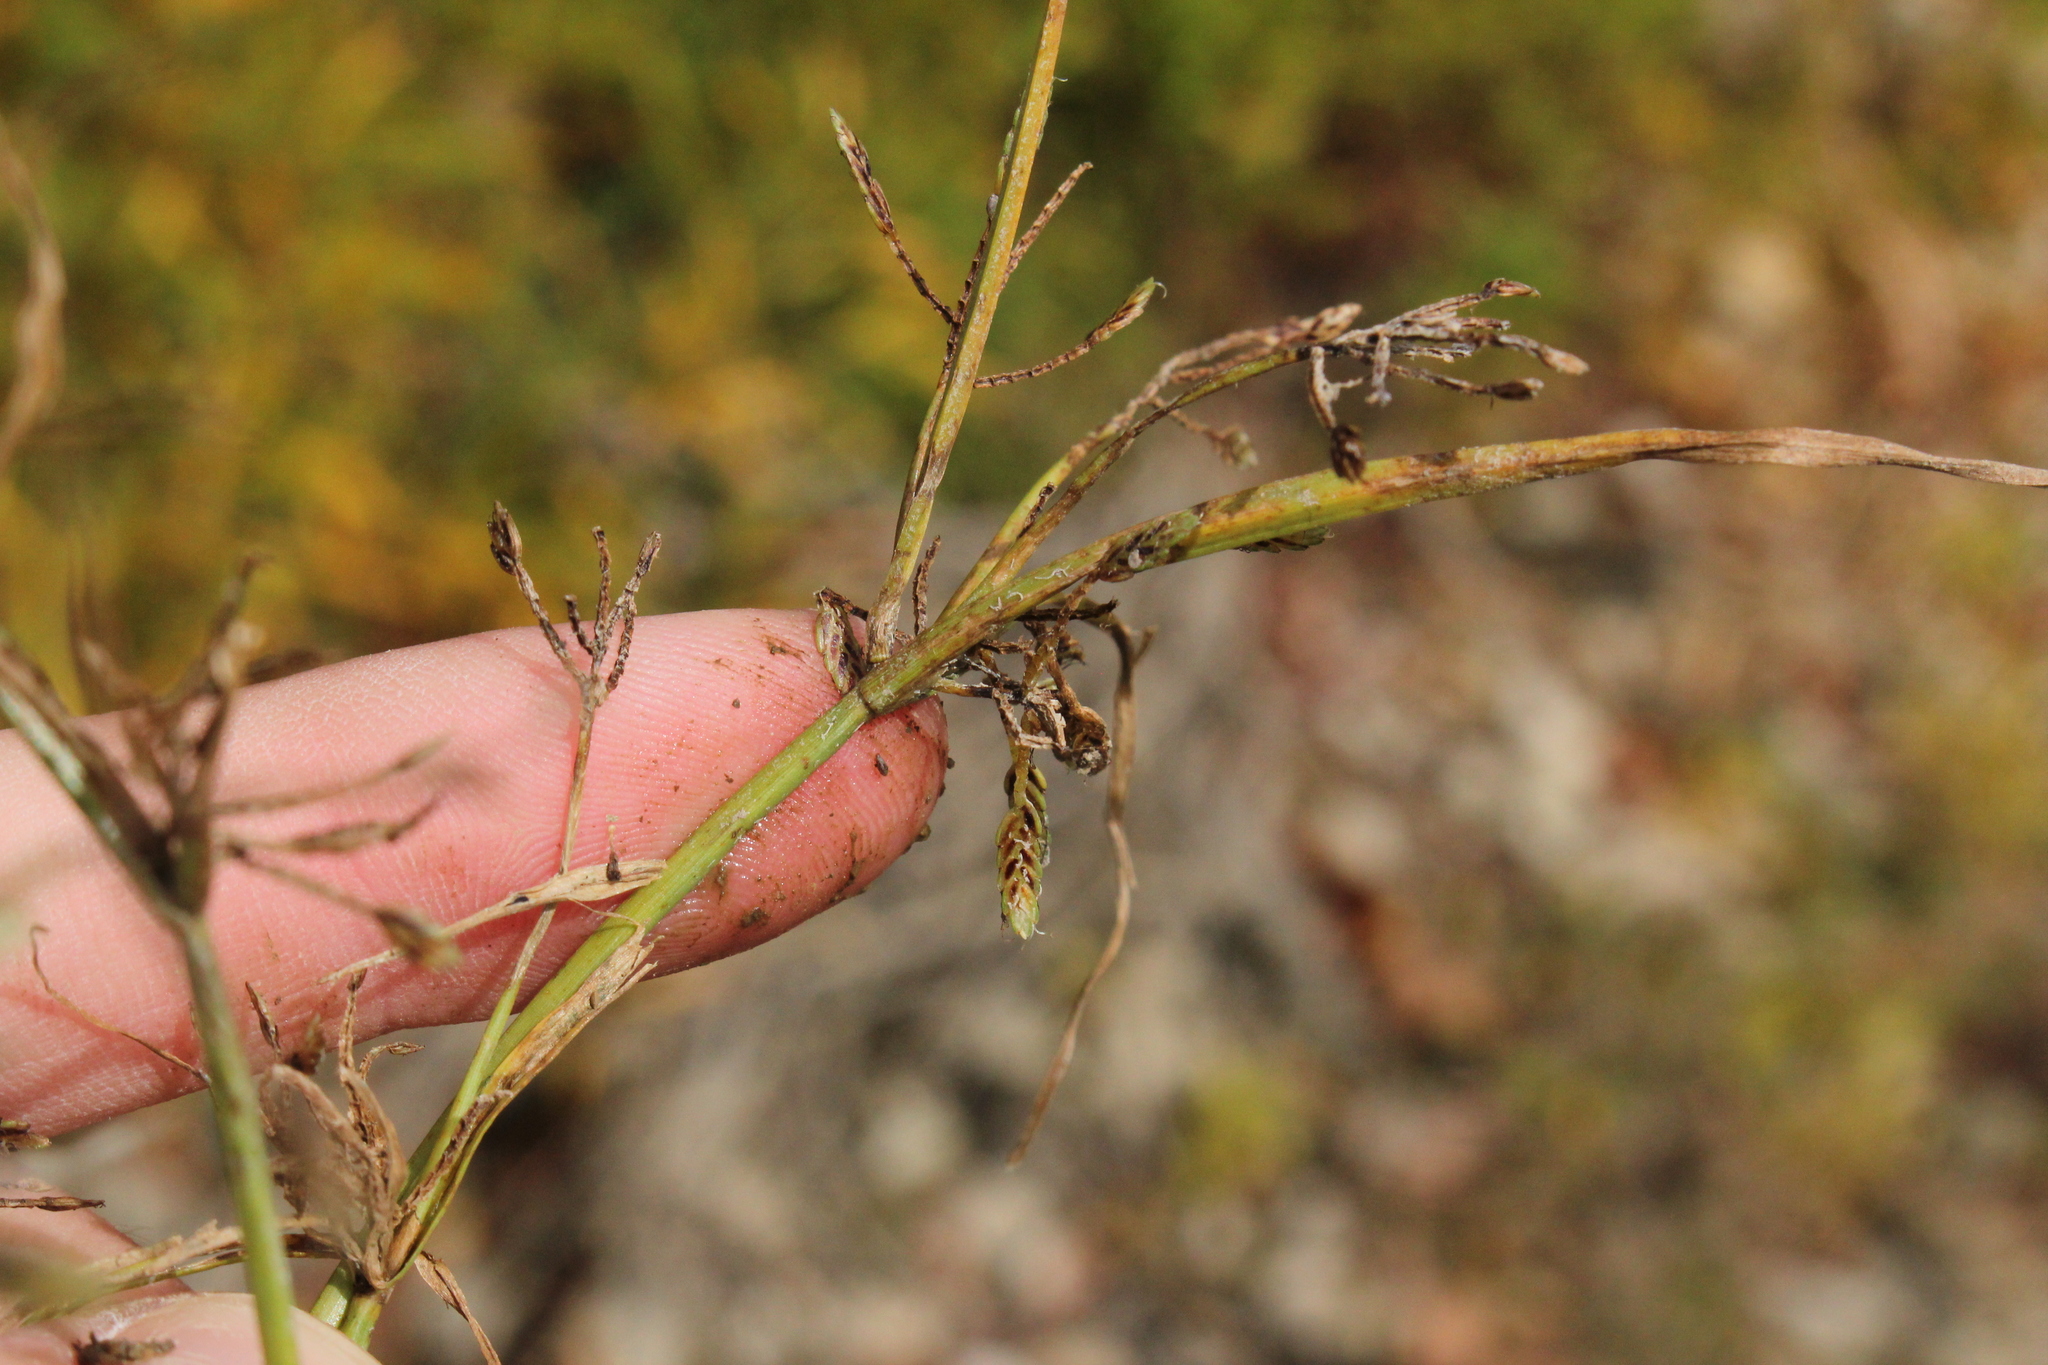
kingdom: Plantae
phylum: Tracheophyta
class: Liliopsida
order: Poales
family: Cyperaceae
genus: Cyperus
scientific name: Cyperus bipartitus
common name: Brook flatsedge
